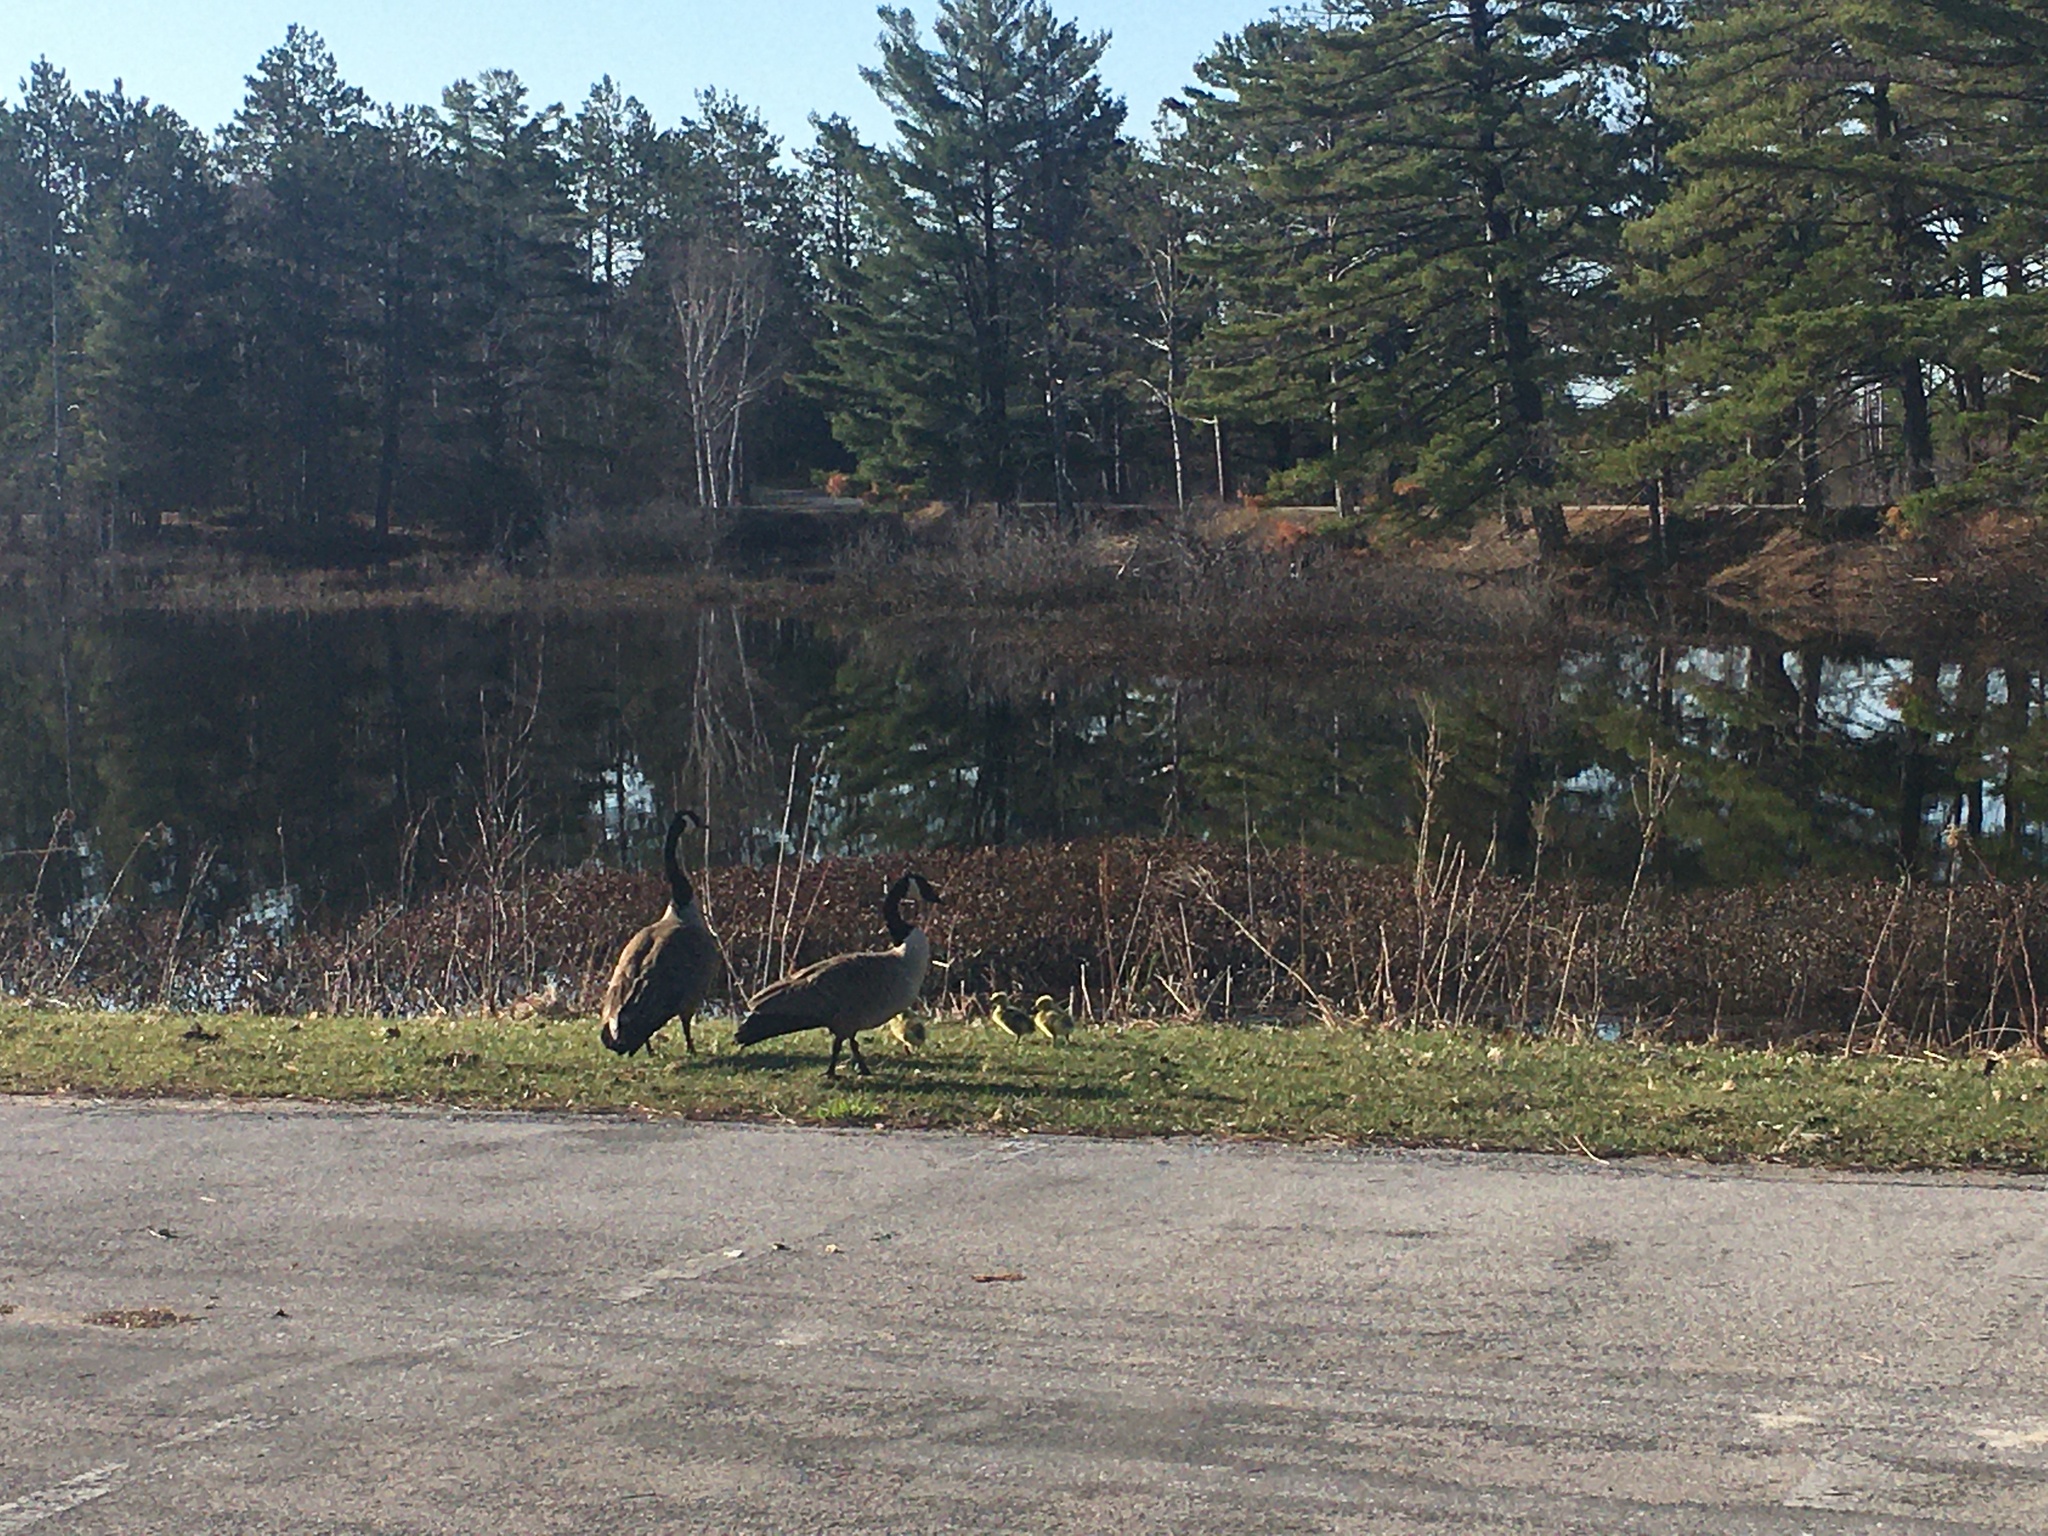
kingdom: Animalia
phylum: Chordata
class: Aves
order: Anseriformes
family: Anatidae
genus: Branta
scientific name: Branta canadensis
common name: Canada goose
